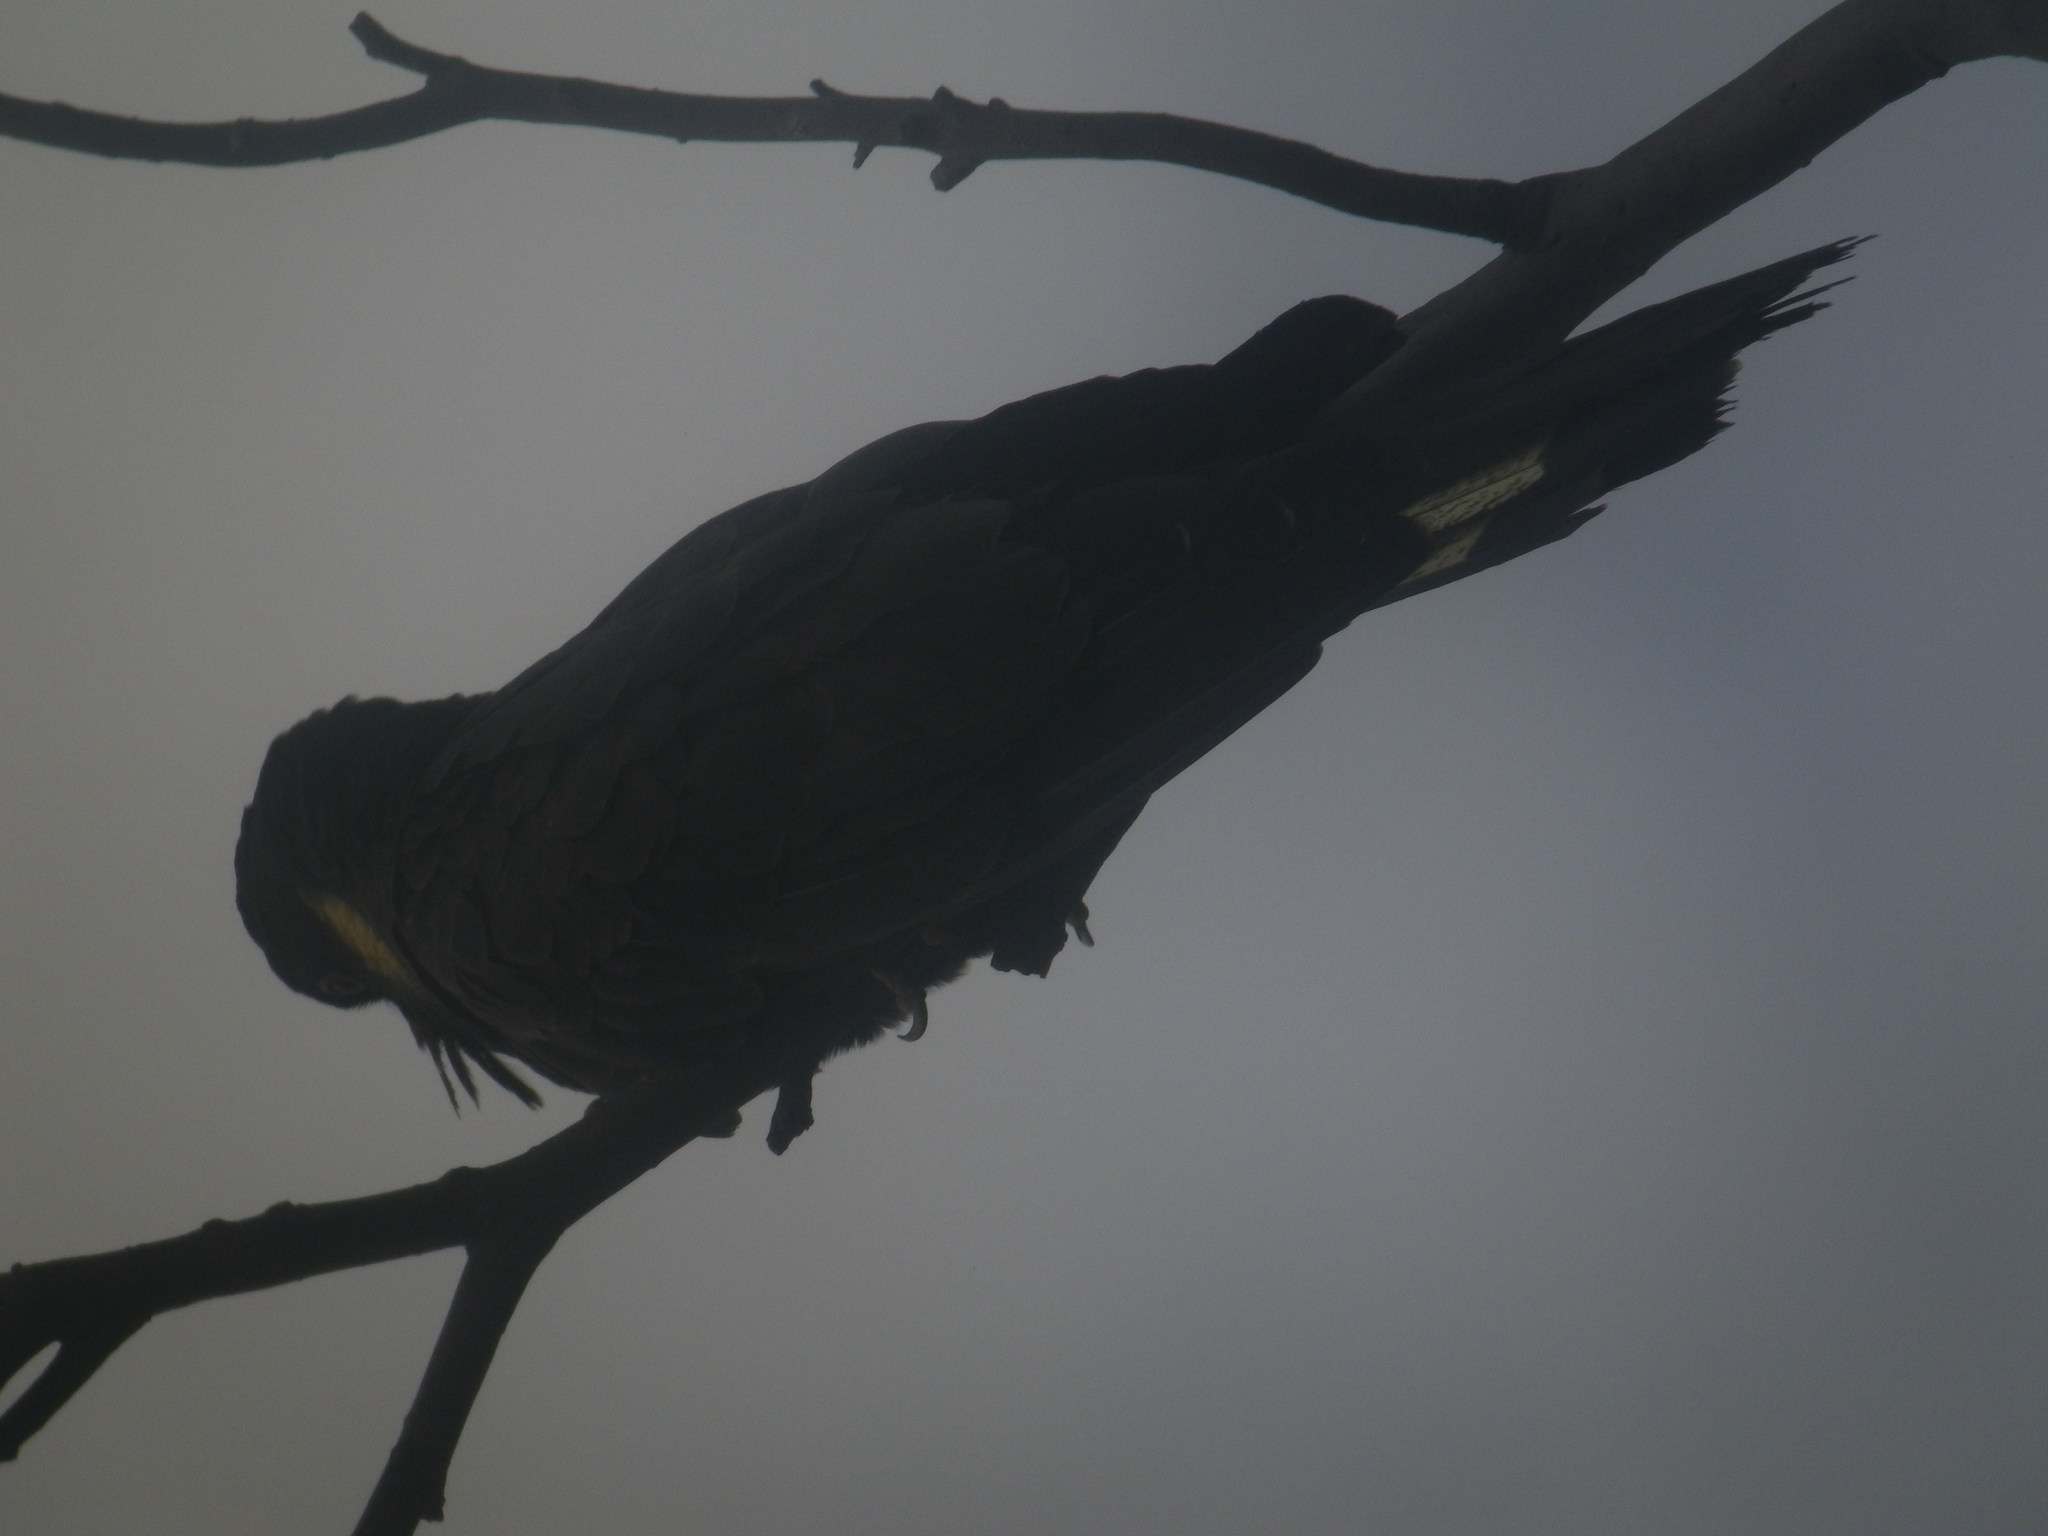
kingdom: Animalia
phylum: Chordata
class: Aves
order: Psittaciformes
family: Cacatuidae
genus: Zanda
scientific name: Zanda funerea
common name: Yellow-tailed black-cockatoo
